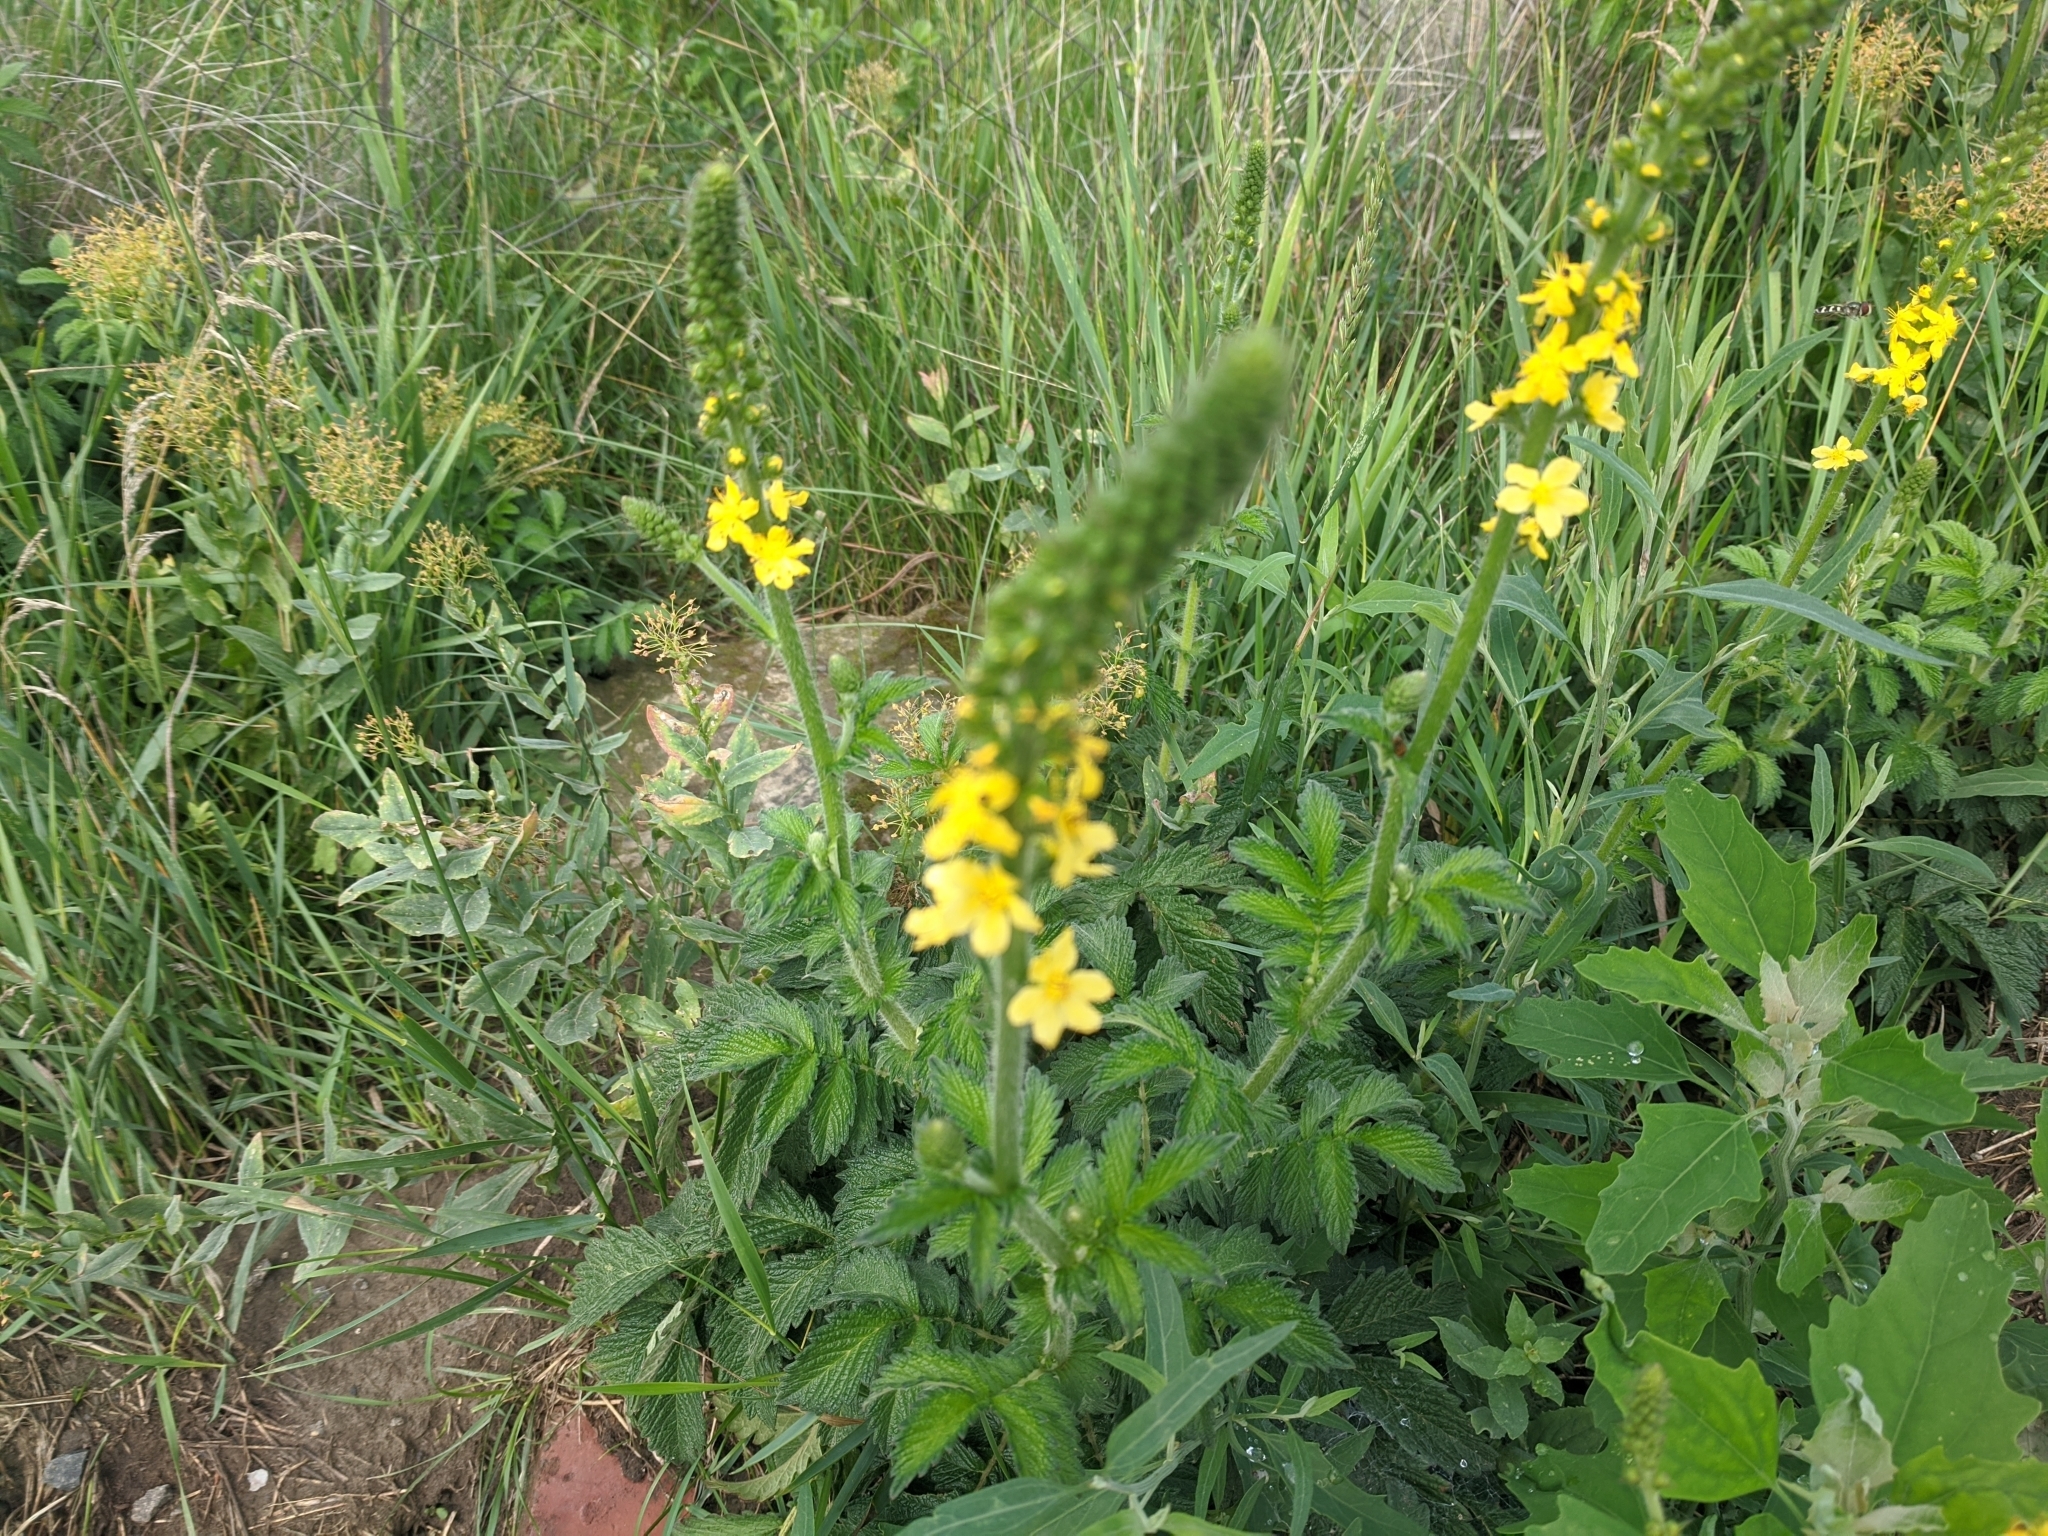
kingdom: Plantae
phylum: Tracheophyta
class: Magnoliopsida
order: Rosales
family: Rosaceae
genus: Agrimonia
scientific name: Agrimonia eupatoria
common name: Agrimony
